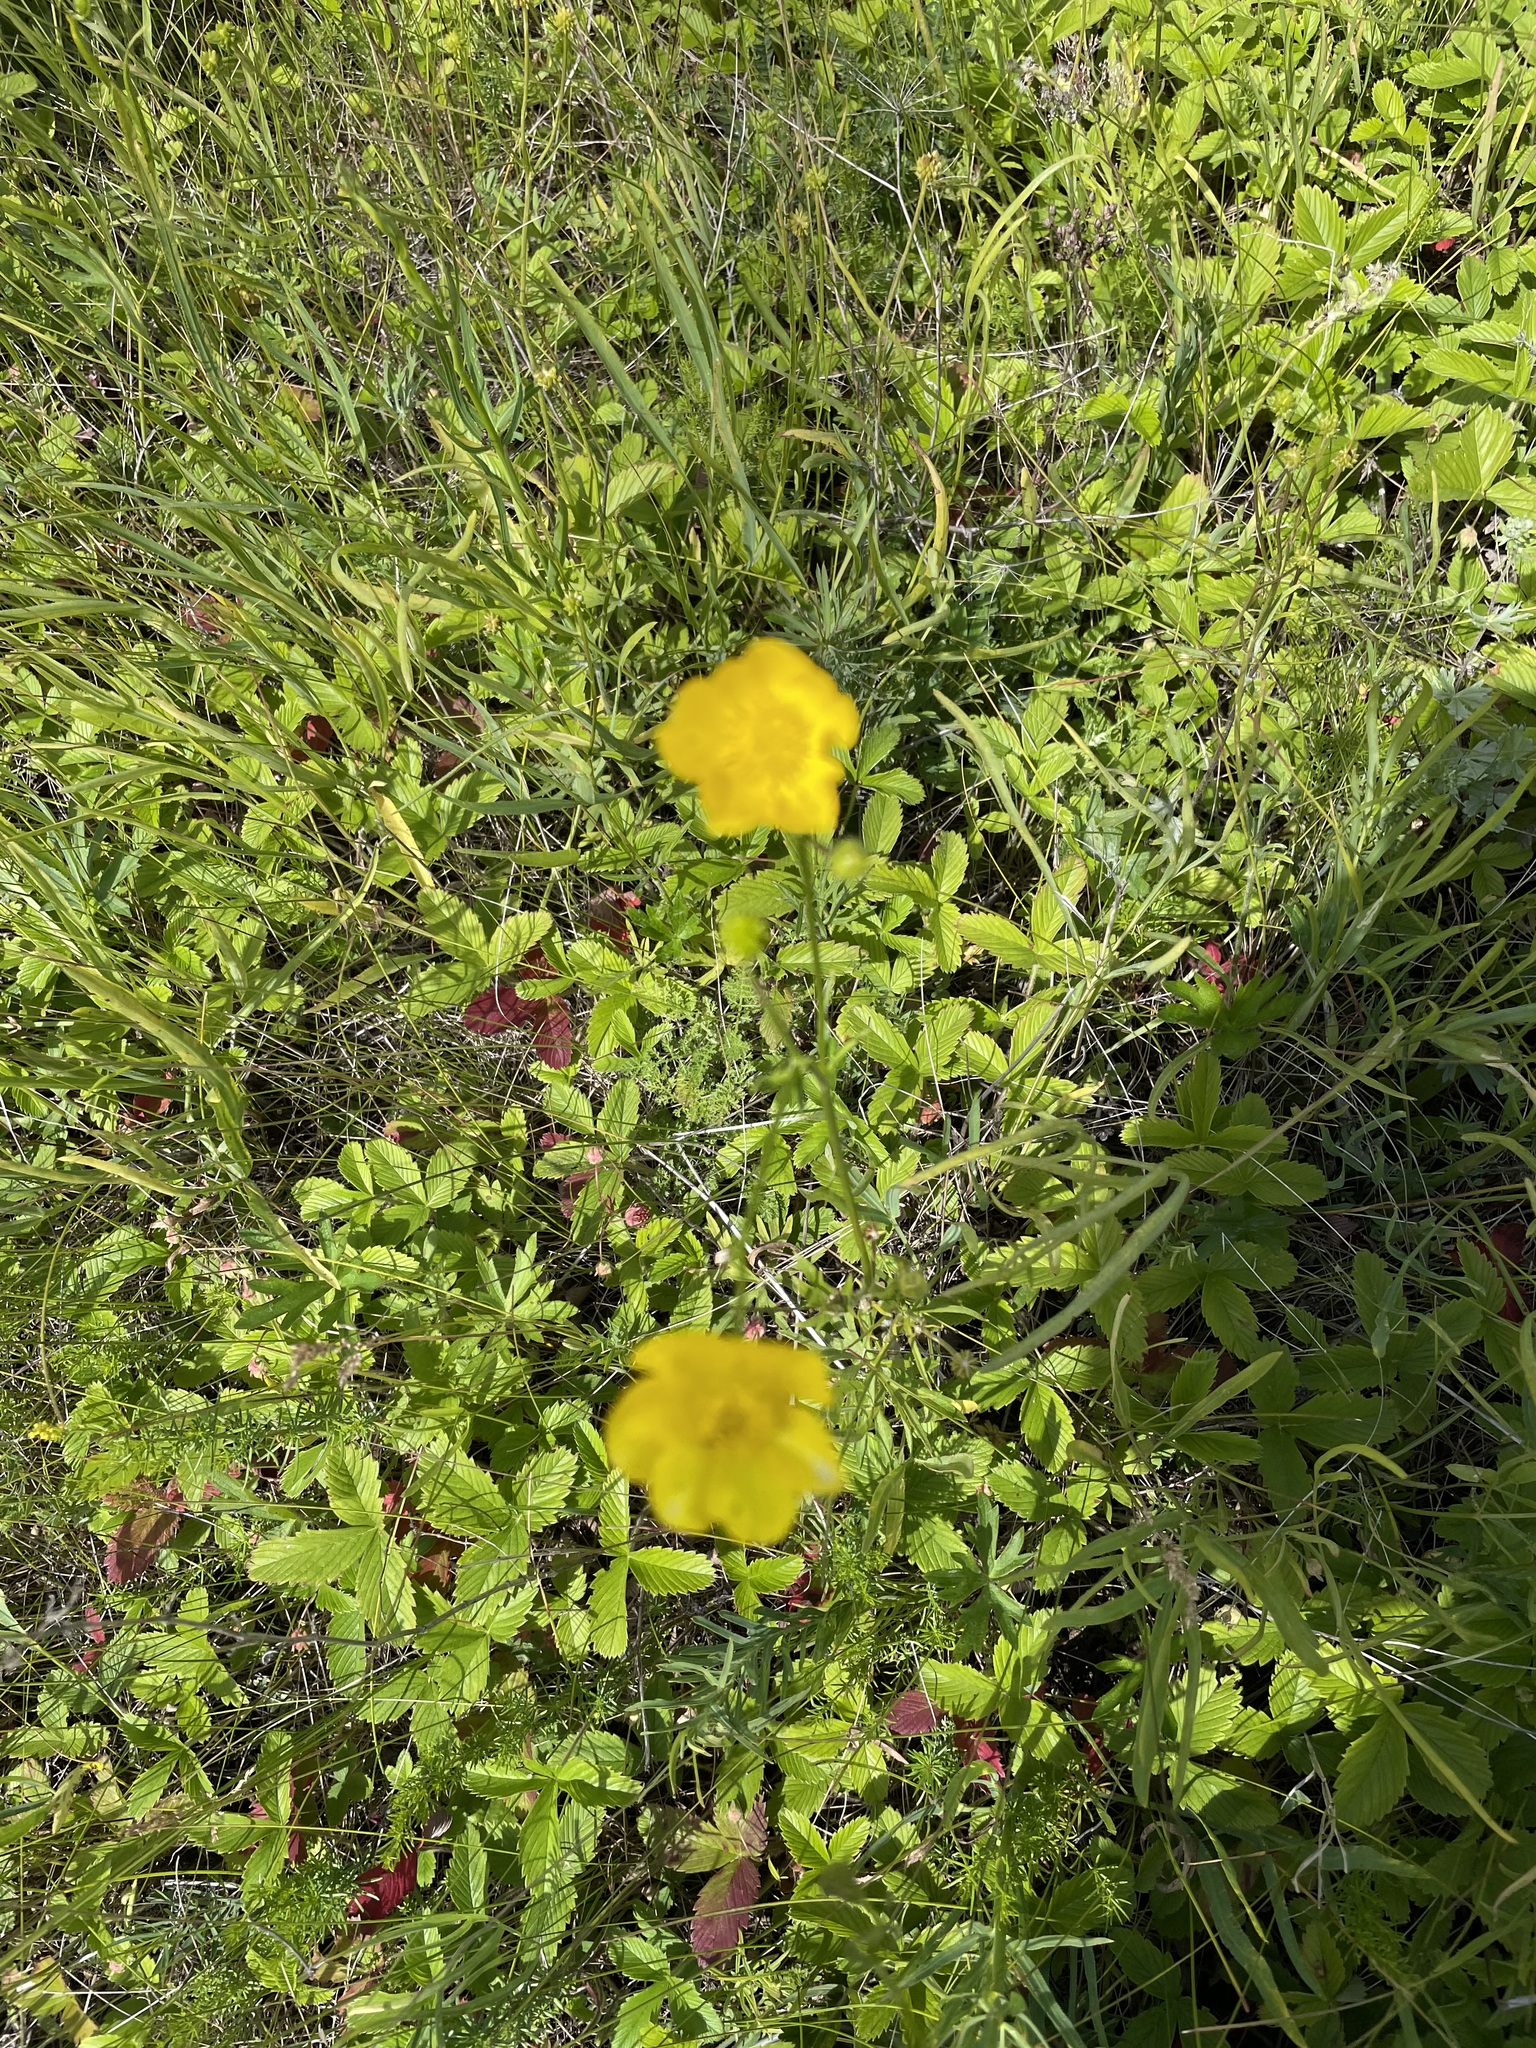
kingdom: Plantae
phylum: Tracheophyta
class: Magnoliopsida
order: Ranunculales
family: Ranunculaceae
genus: Ranunculus
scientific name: Ranunculus polyanthemos
